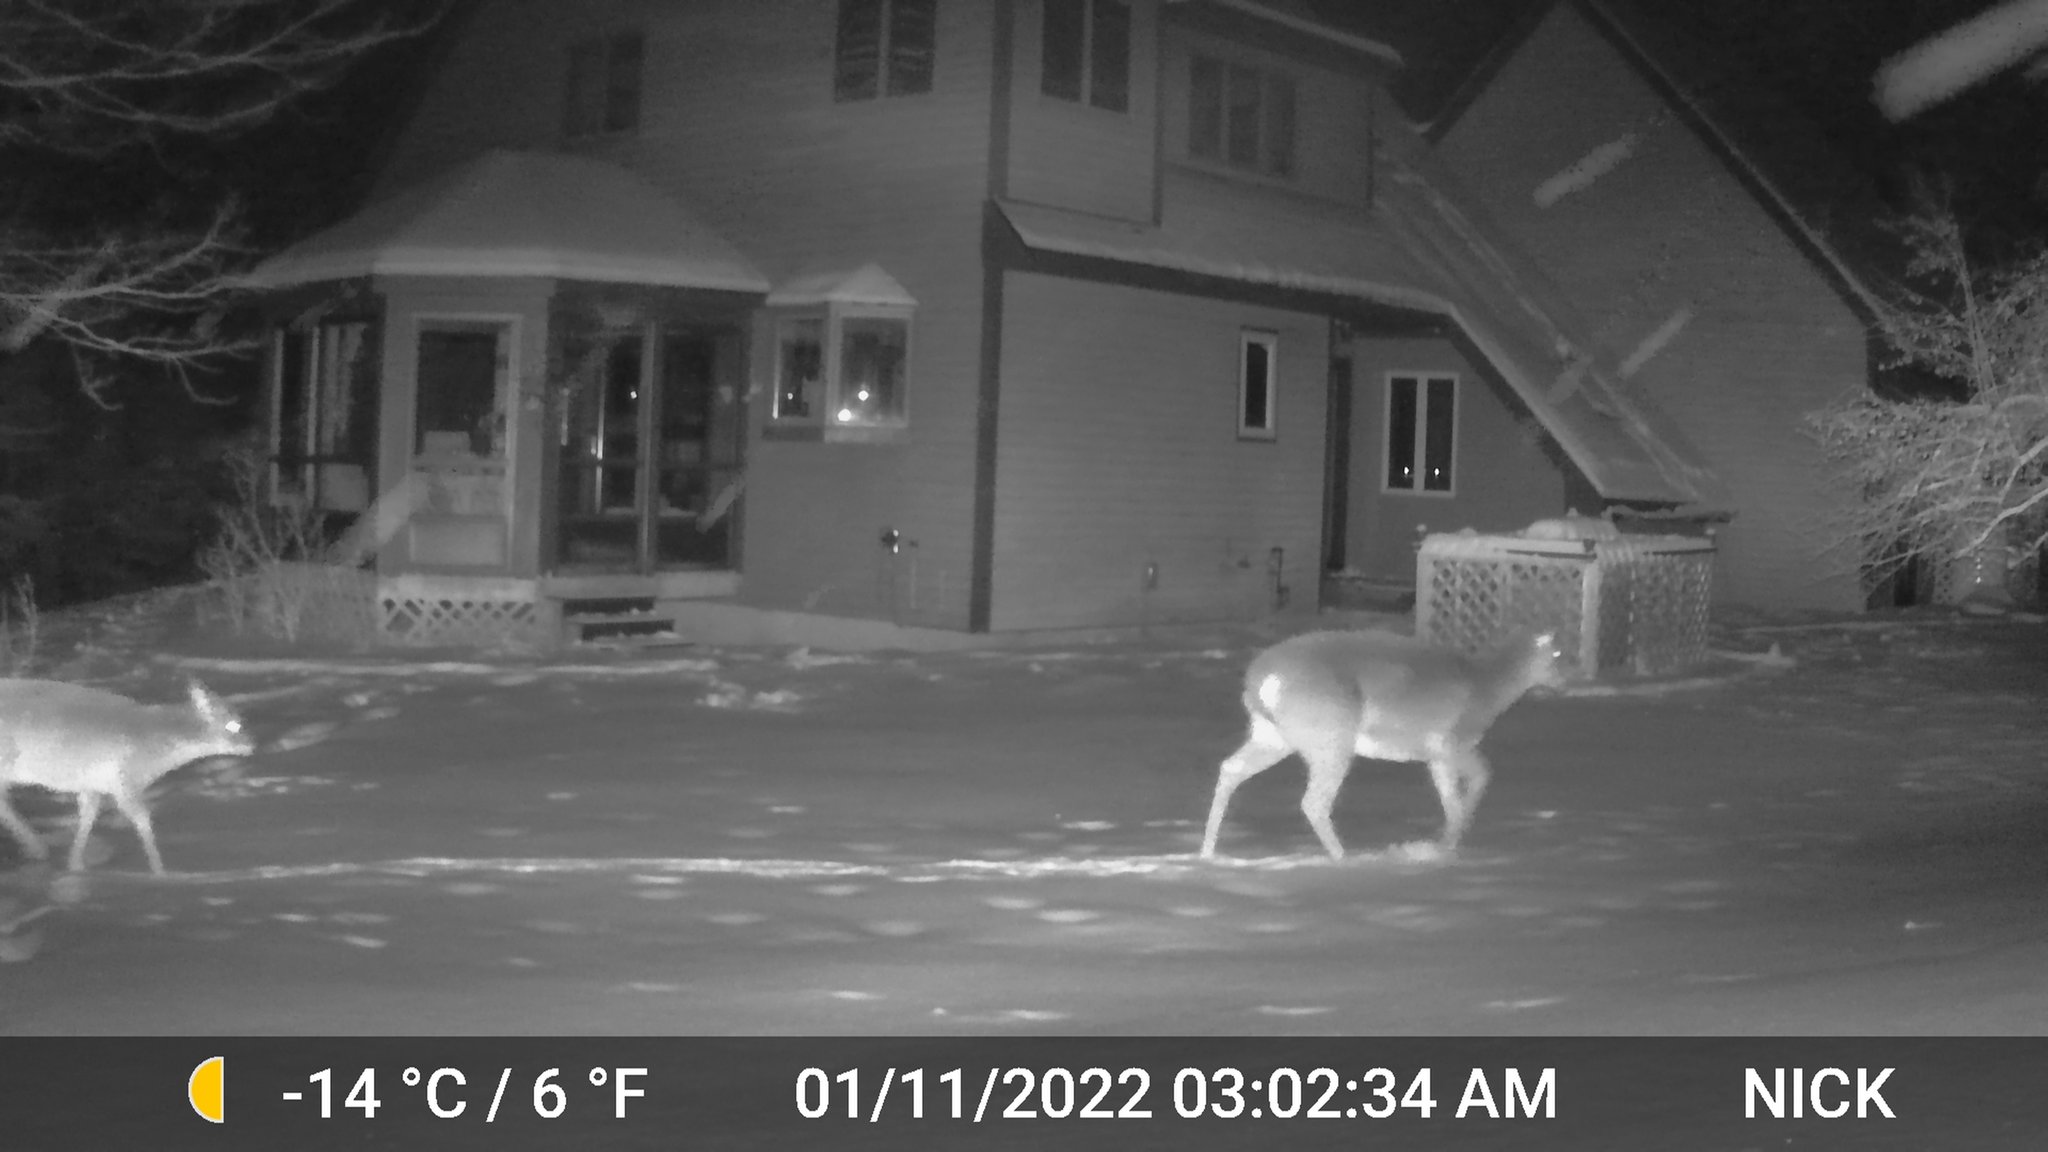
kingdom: Animalia
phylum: Chordata
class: Mammalia
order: Artiodactyla
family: Cervidae
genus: Odocoileus
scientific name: Odocoileus virginianus
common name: White-tailed deer
